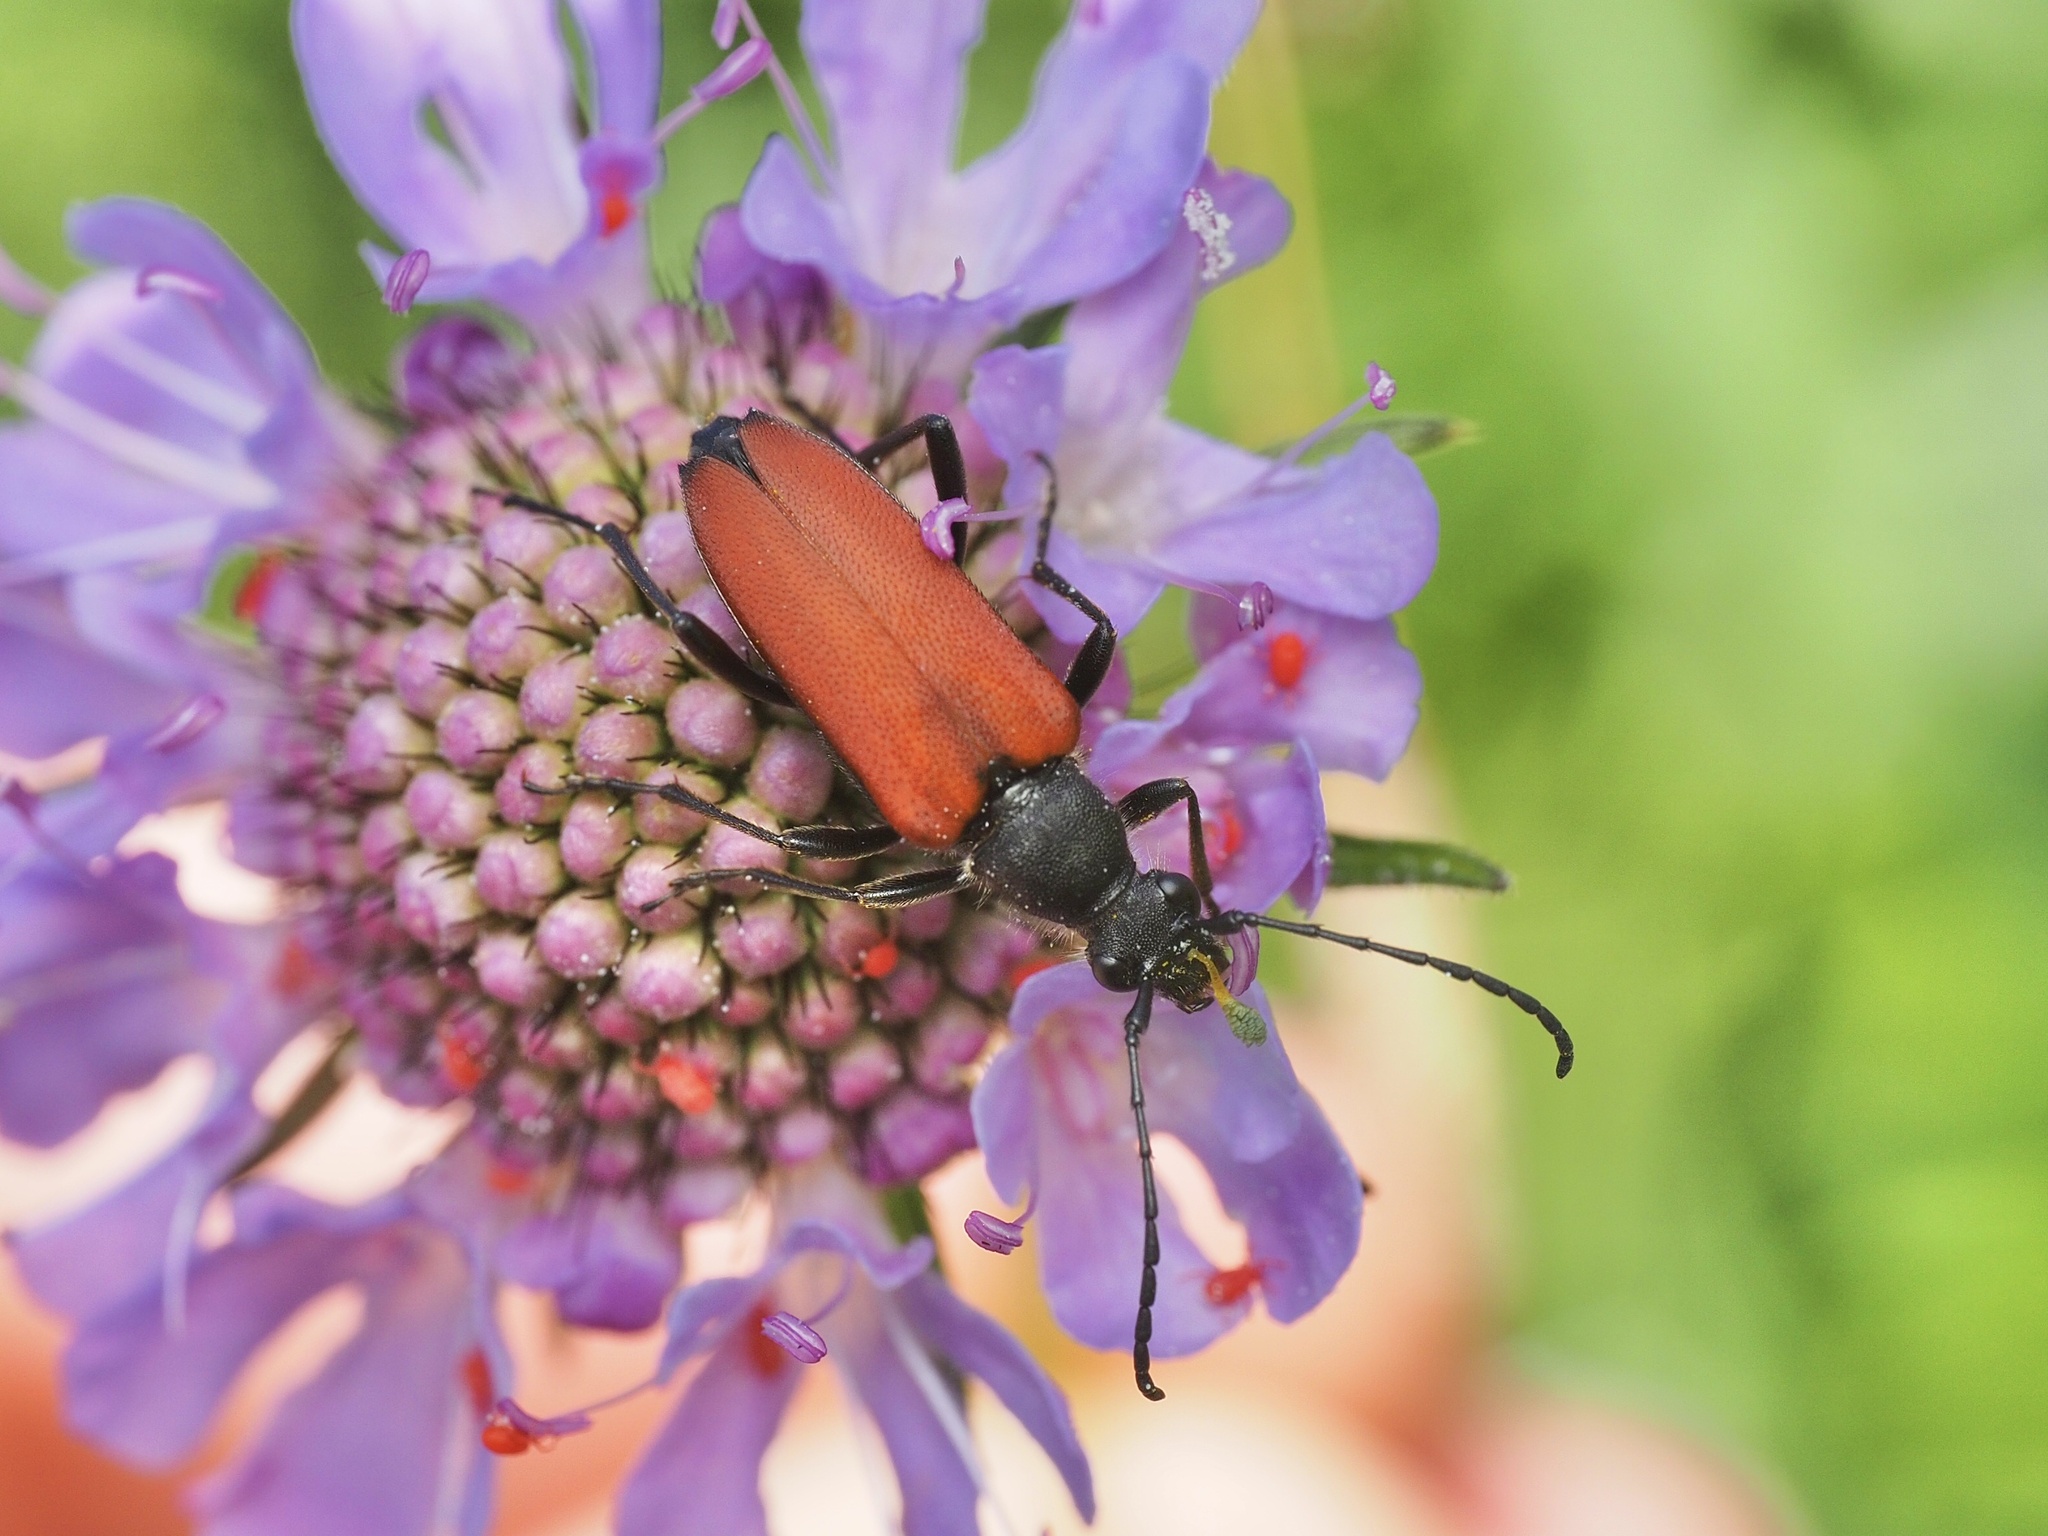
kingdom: Animalia
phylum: Arthropoda
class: Insecta
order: Coleoptera
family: Cerambycidae
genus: Anastrangalia
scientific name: Anastrangalia sanguinolenta
